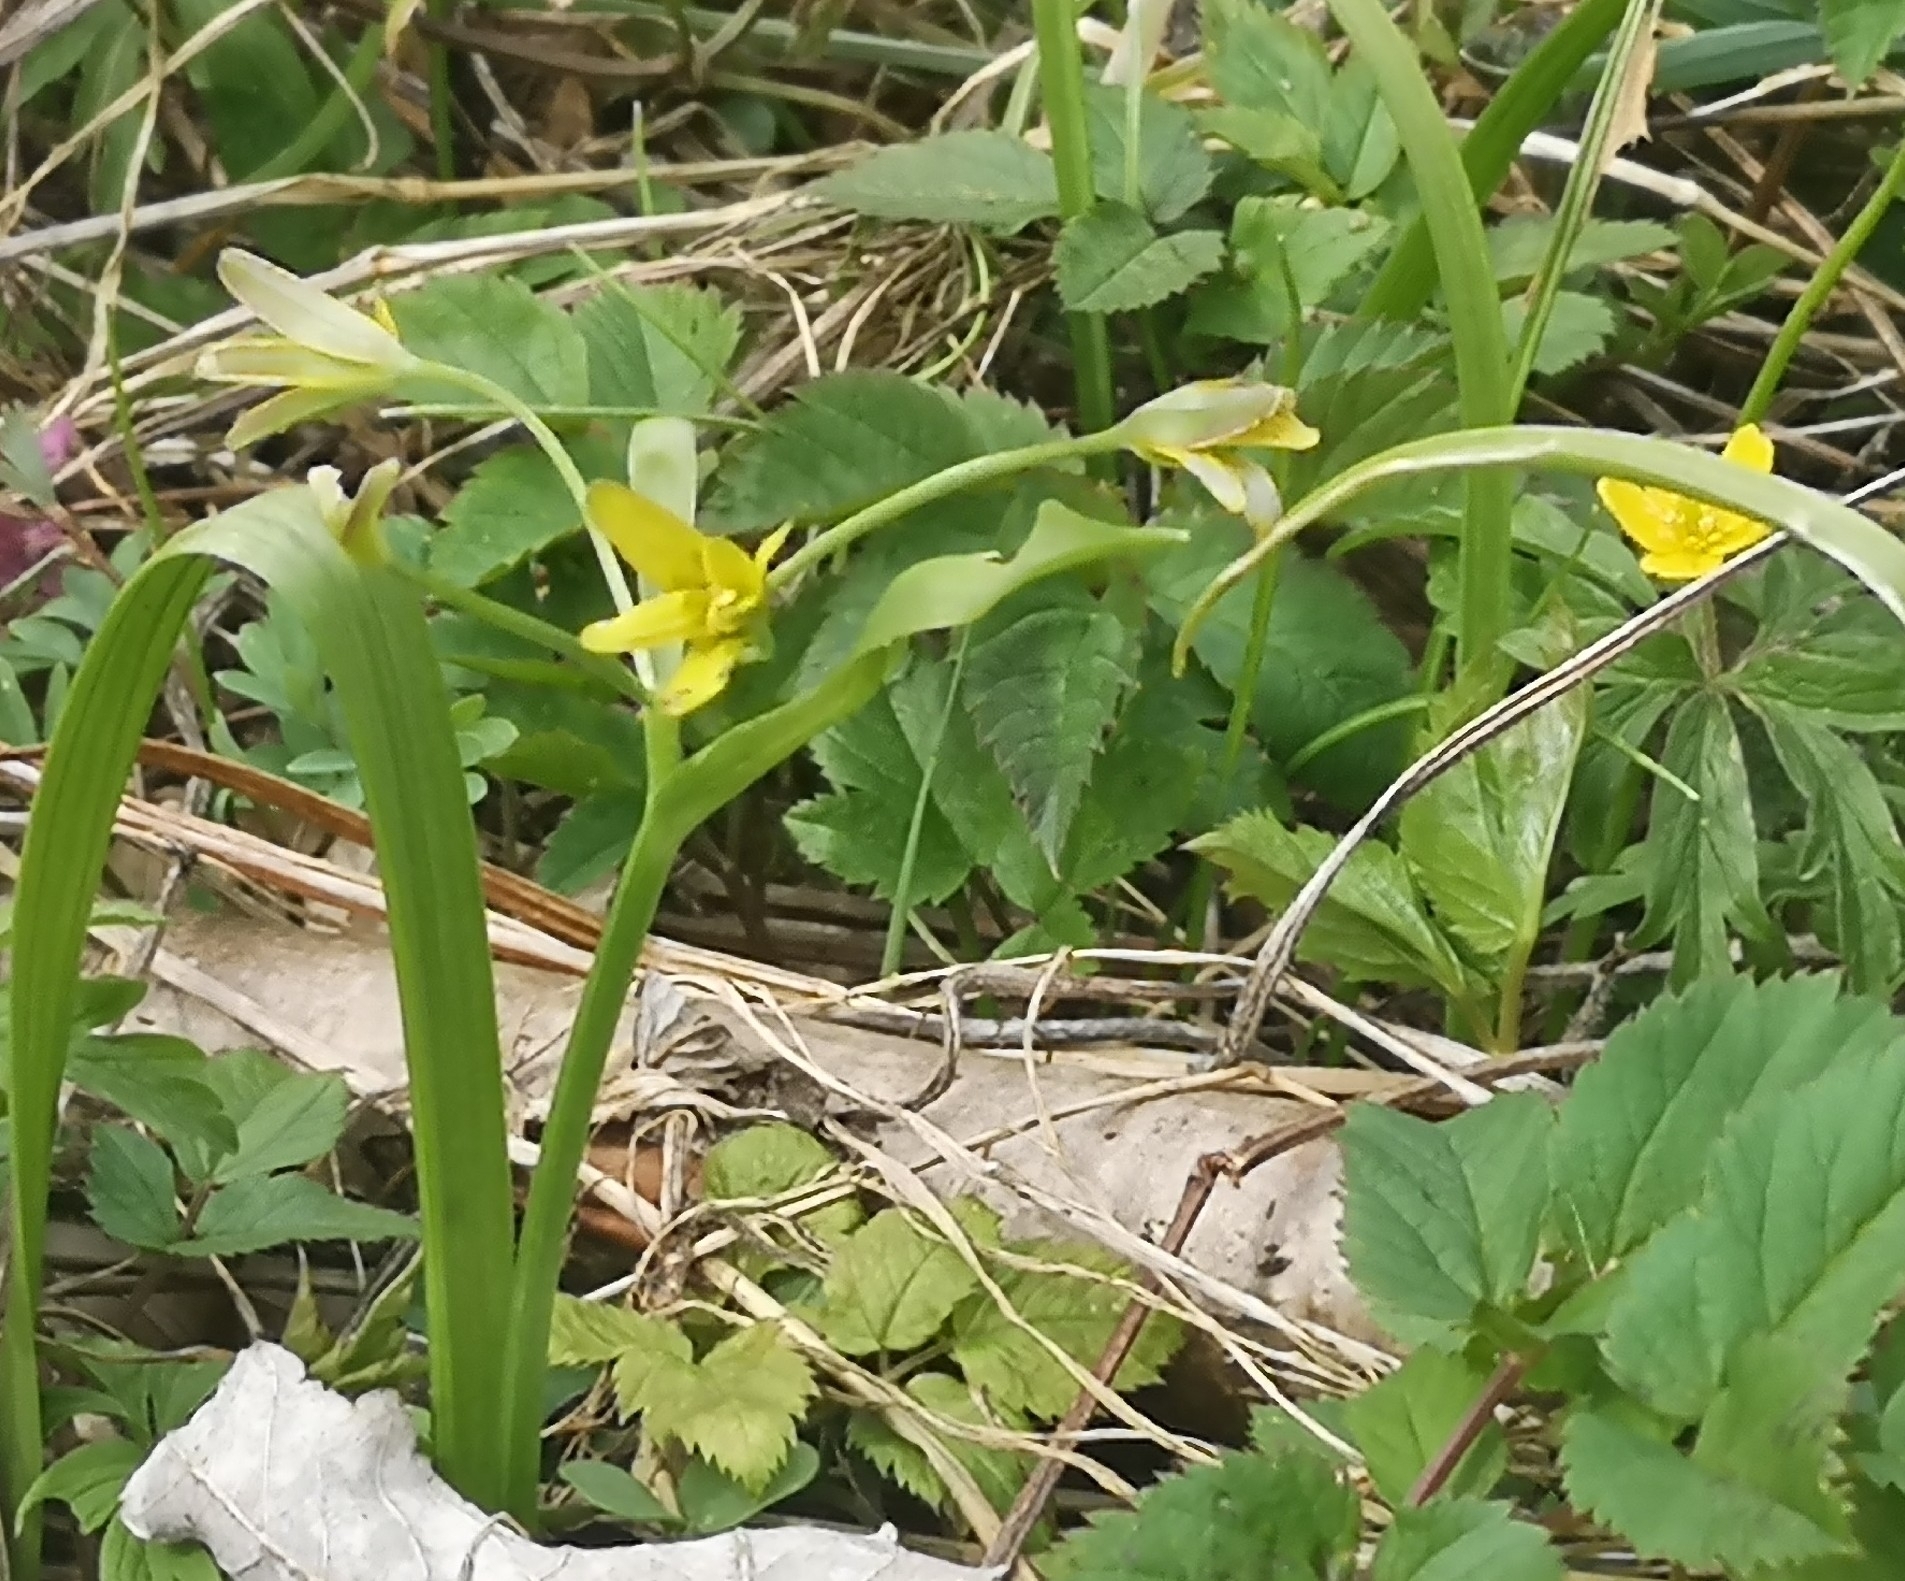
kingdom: Plantae
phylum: Tracheophyta
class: Liliopsida
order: Liliales
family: Liliaceae
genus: Gagea
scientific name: Gagea lutea
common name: Yellow star-of-bethlehem
